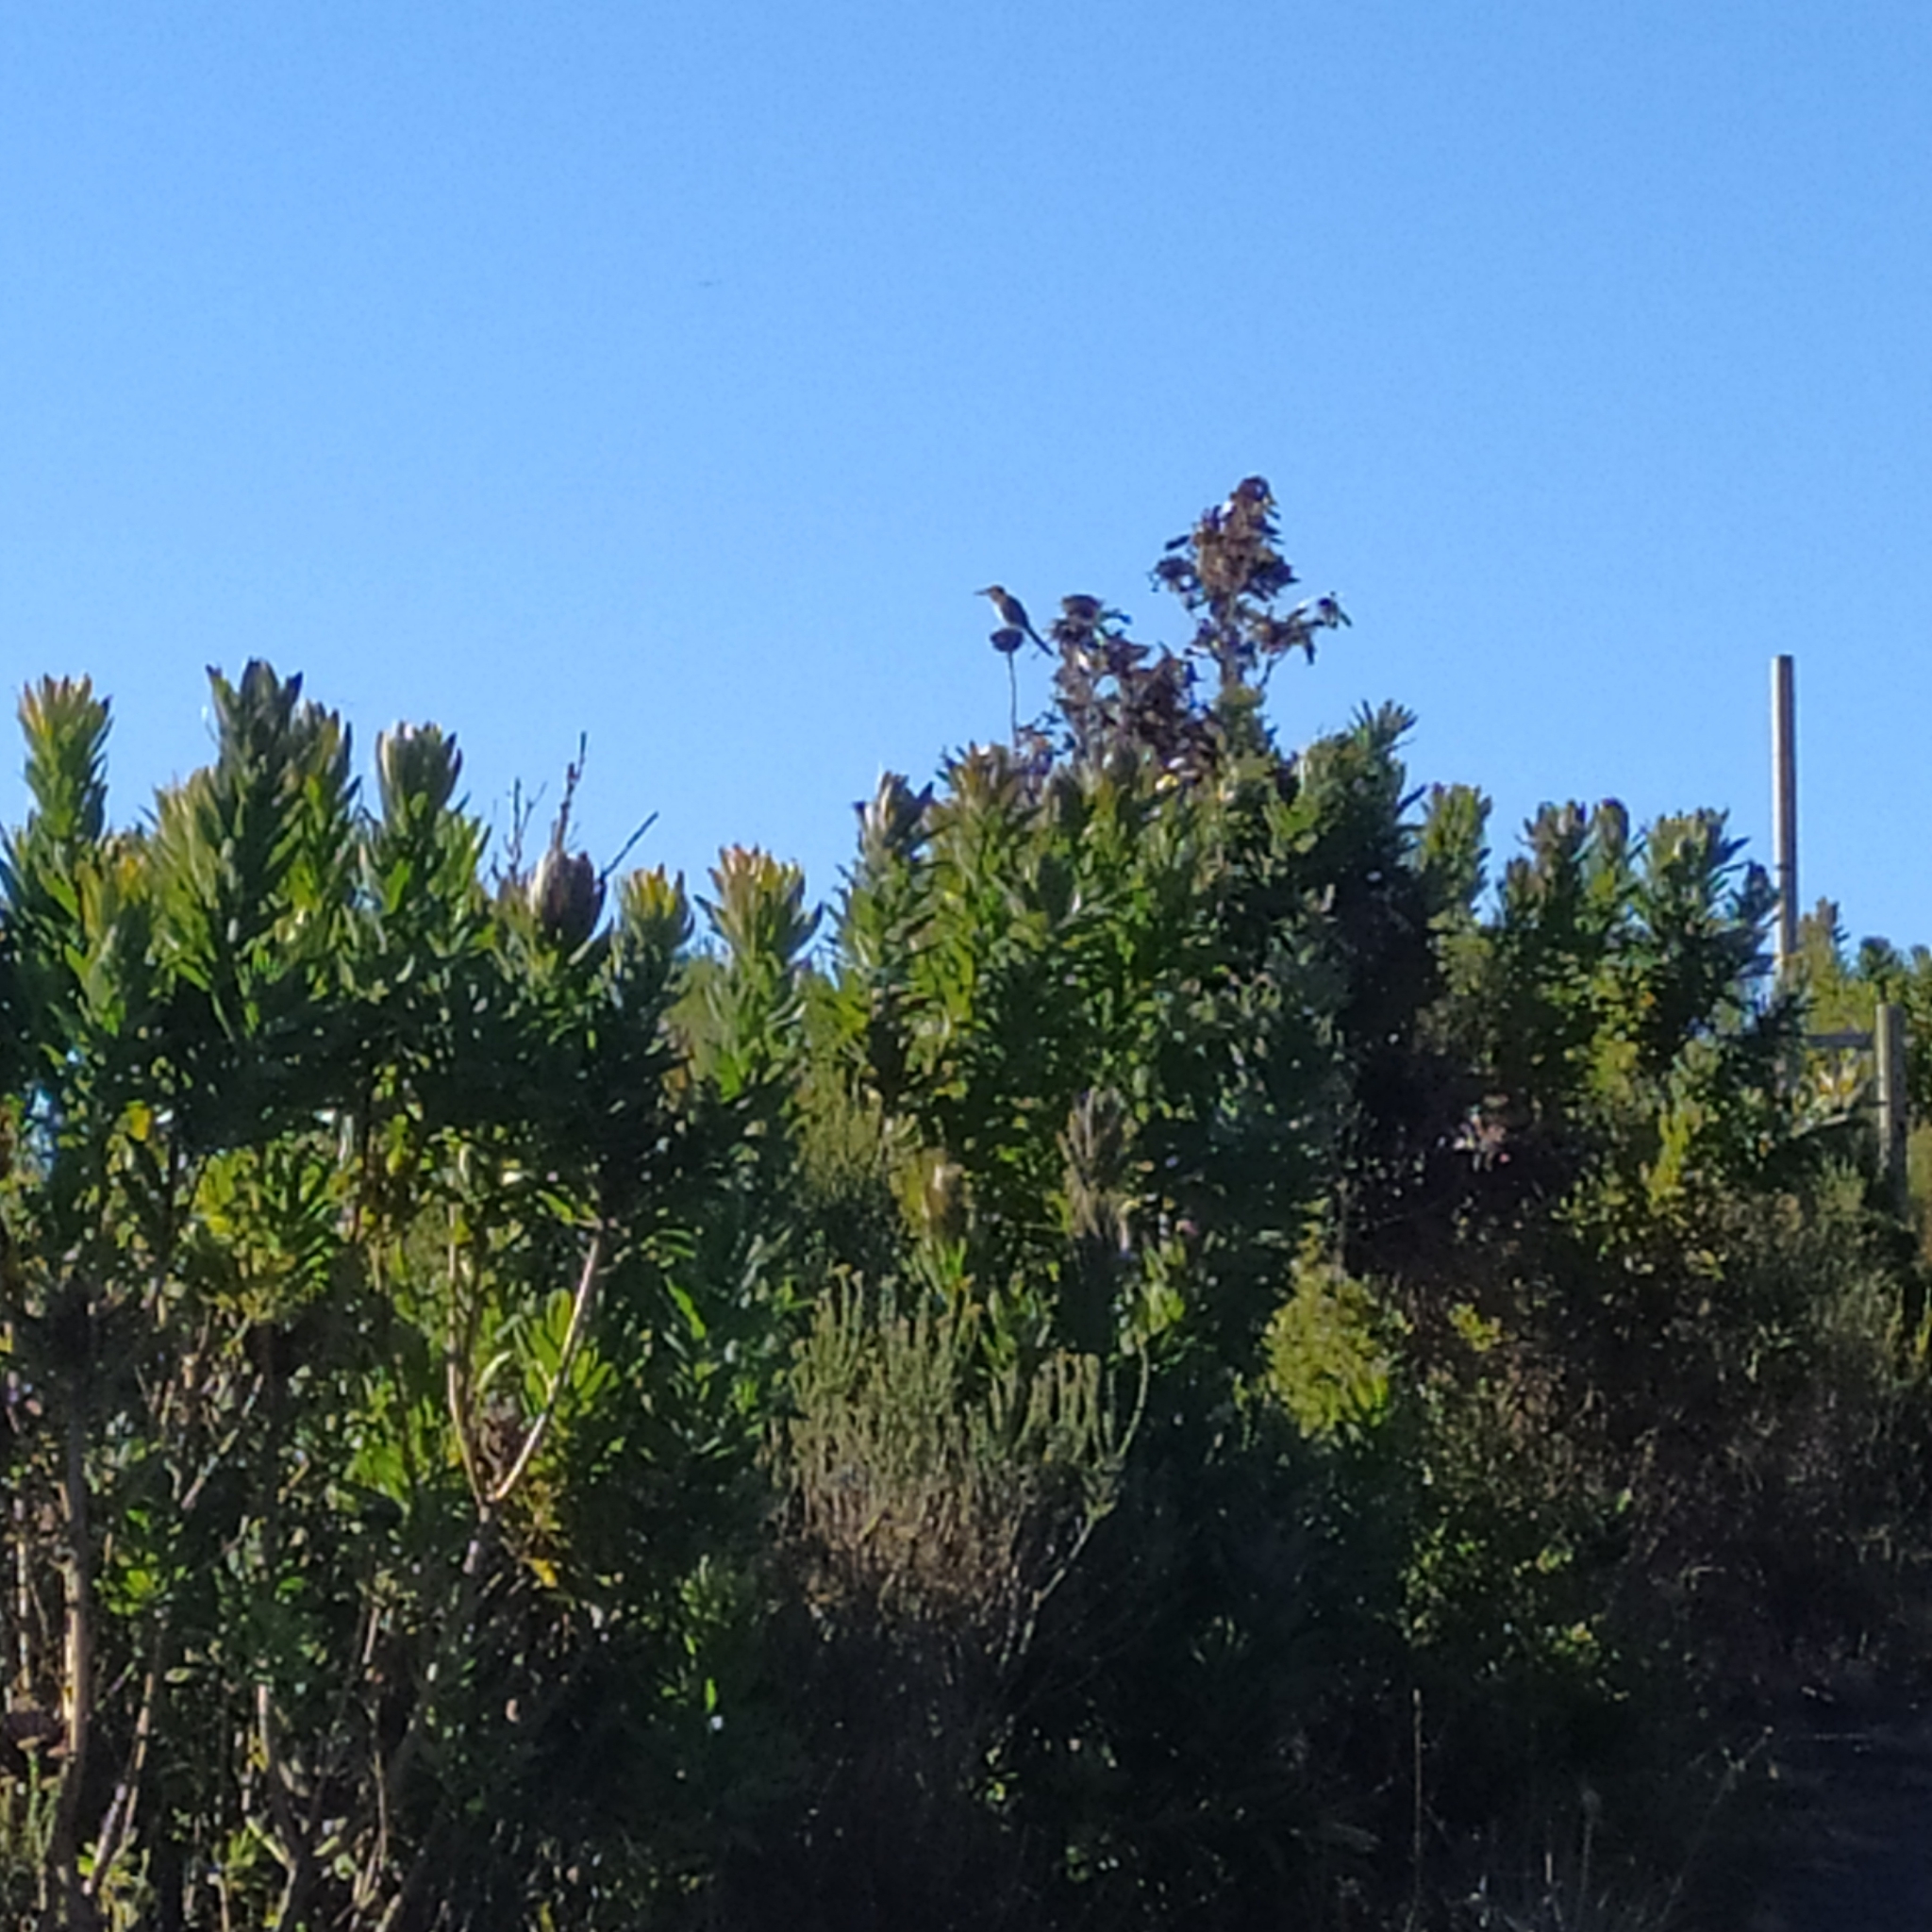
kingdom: Animalia
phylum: Chordata
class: Aves
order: Passeriformes
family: Promeropidae
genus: Promerops
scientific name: Promerops cafer
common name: Cape sugarbird
